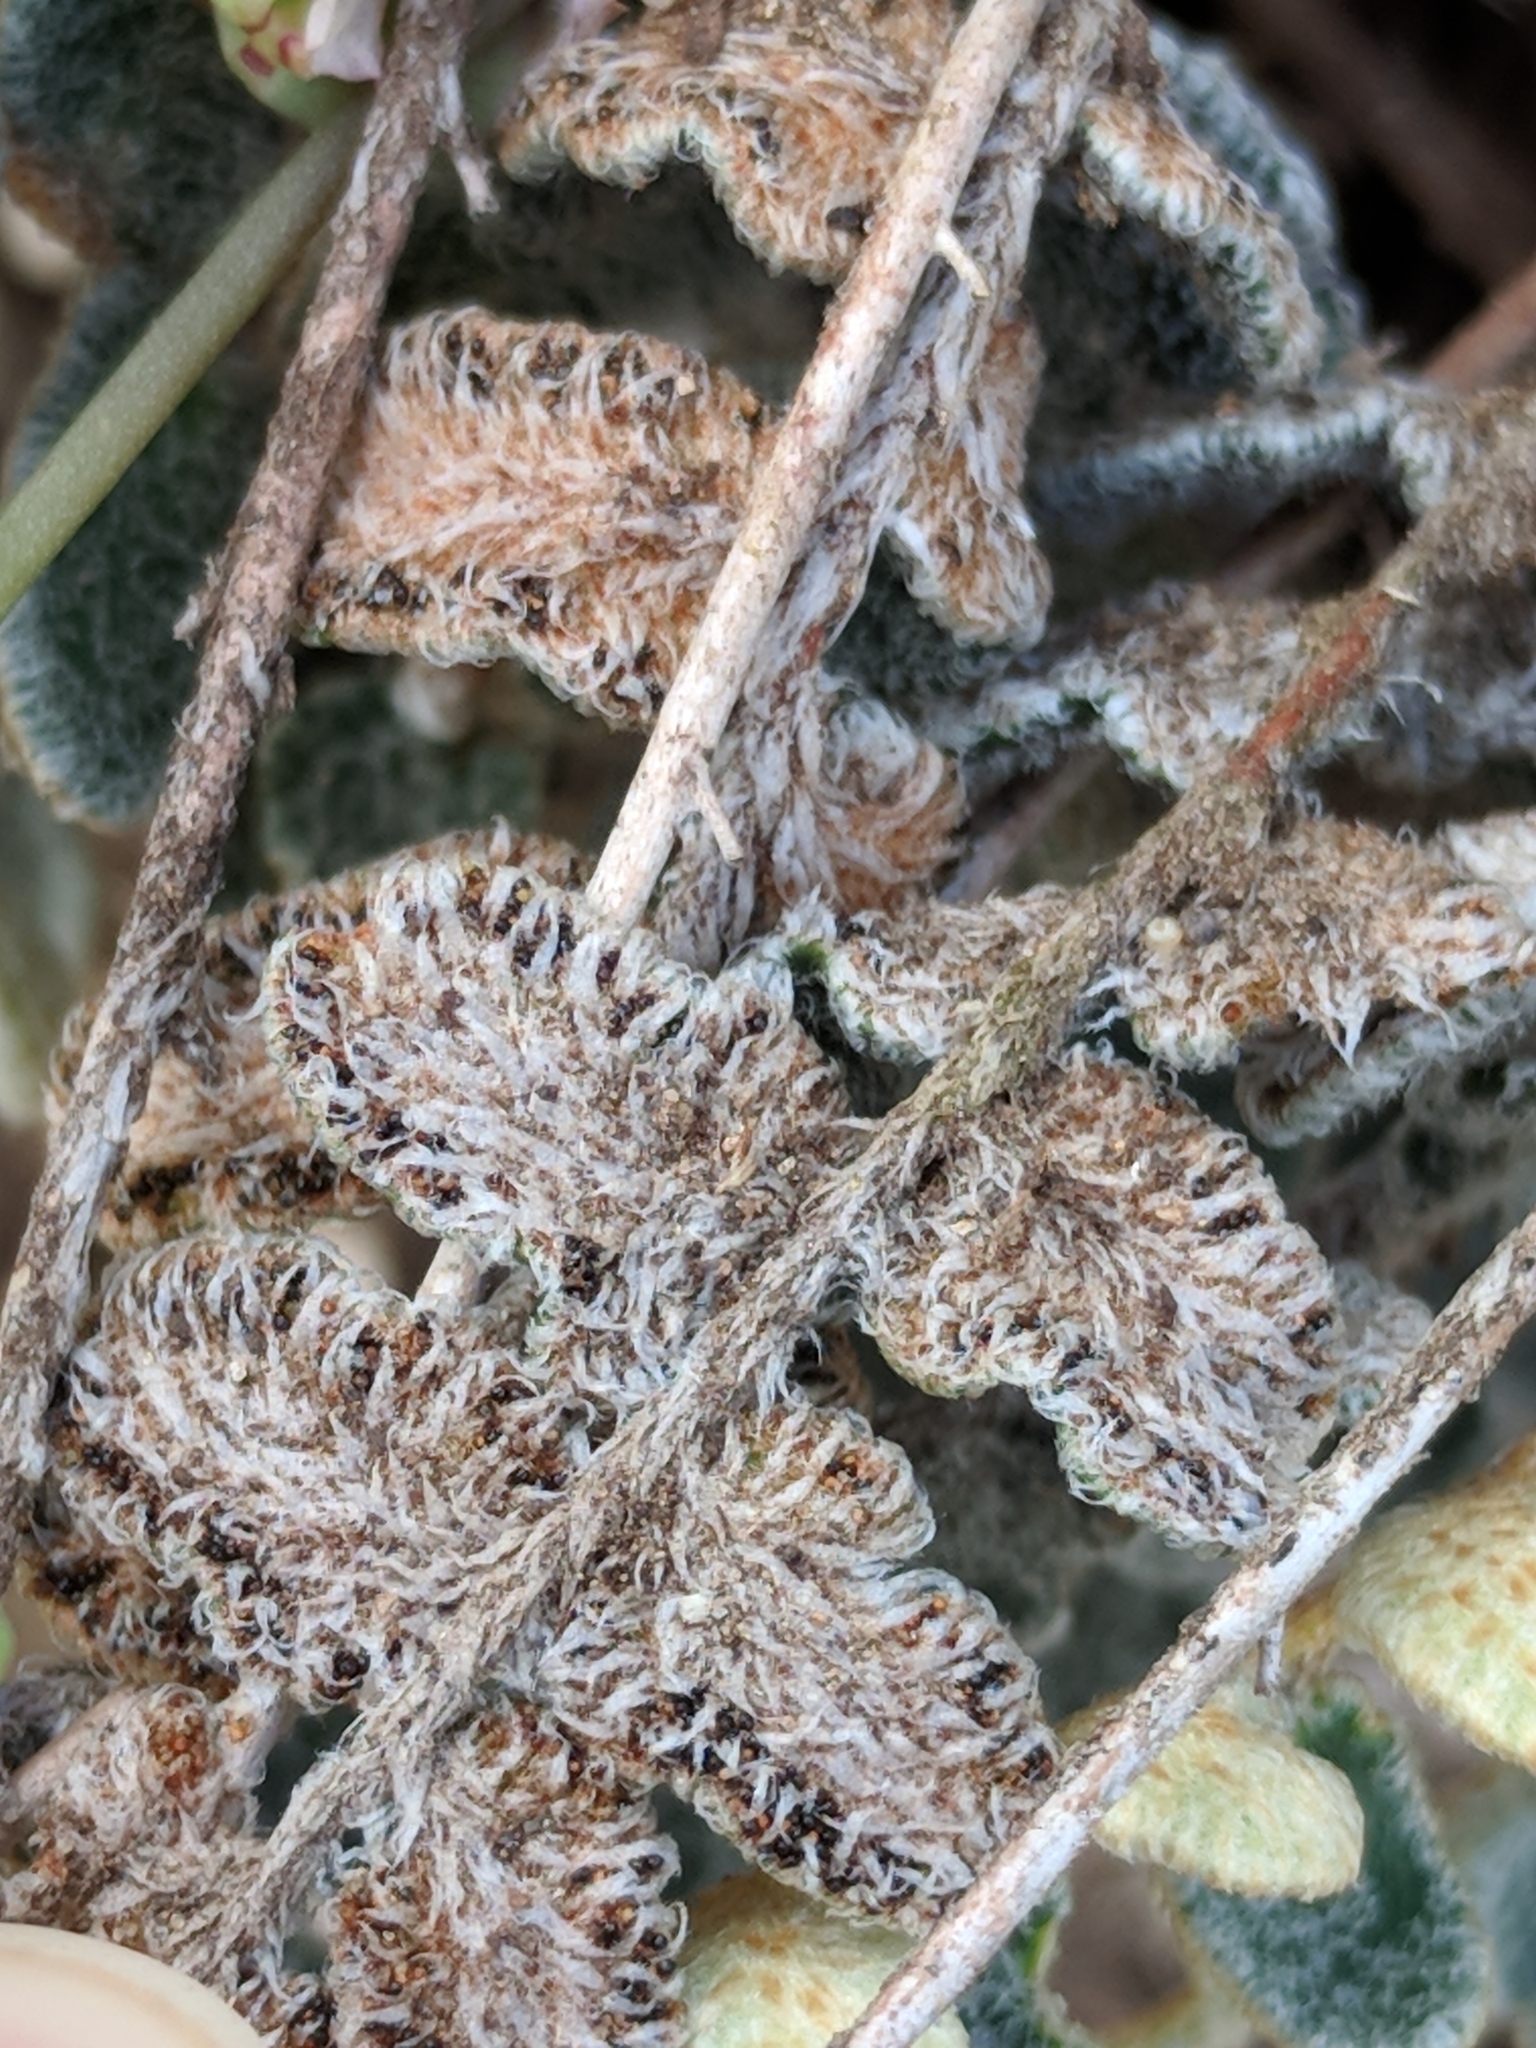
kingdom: Plantae
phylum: Tracheophyta
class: Polypodiopsida
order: Polypodiales
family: Pteridaceae
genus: Astrolepis
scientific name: Astrolepis integerrima
